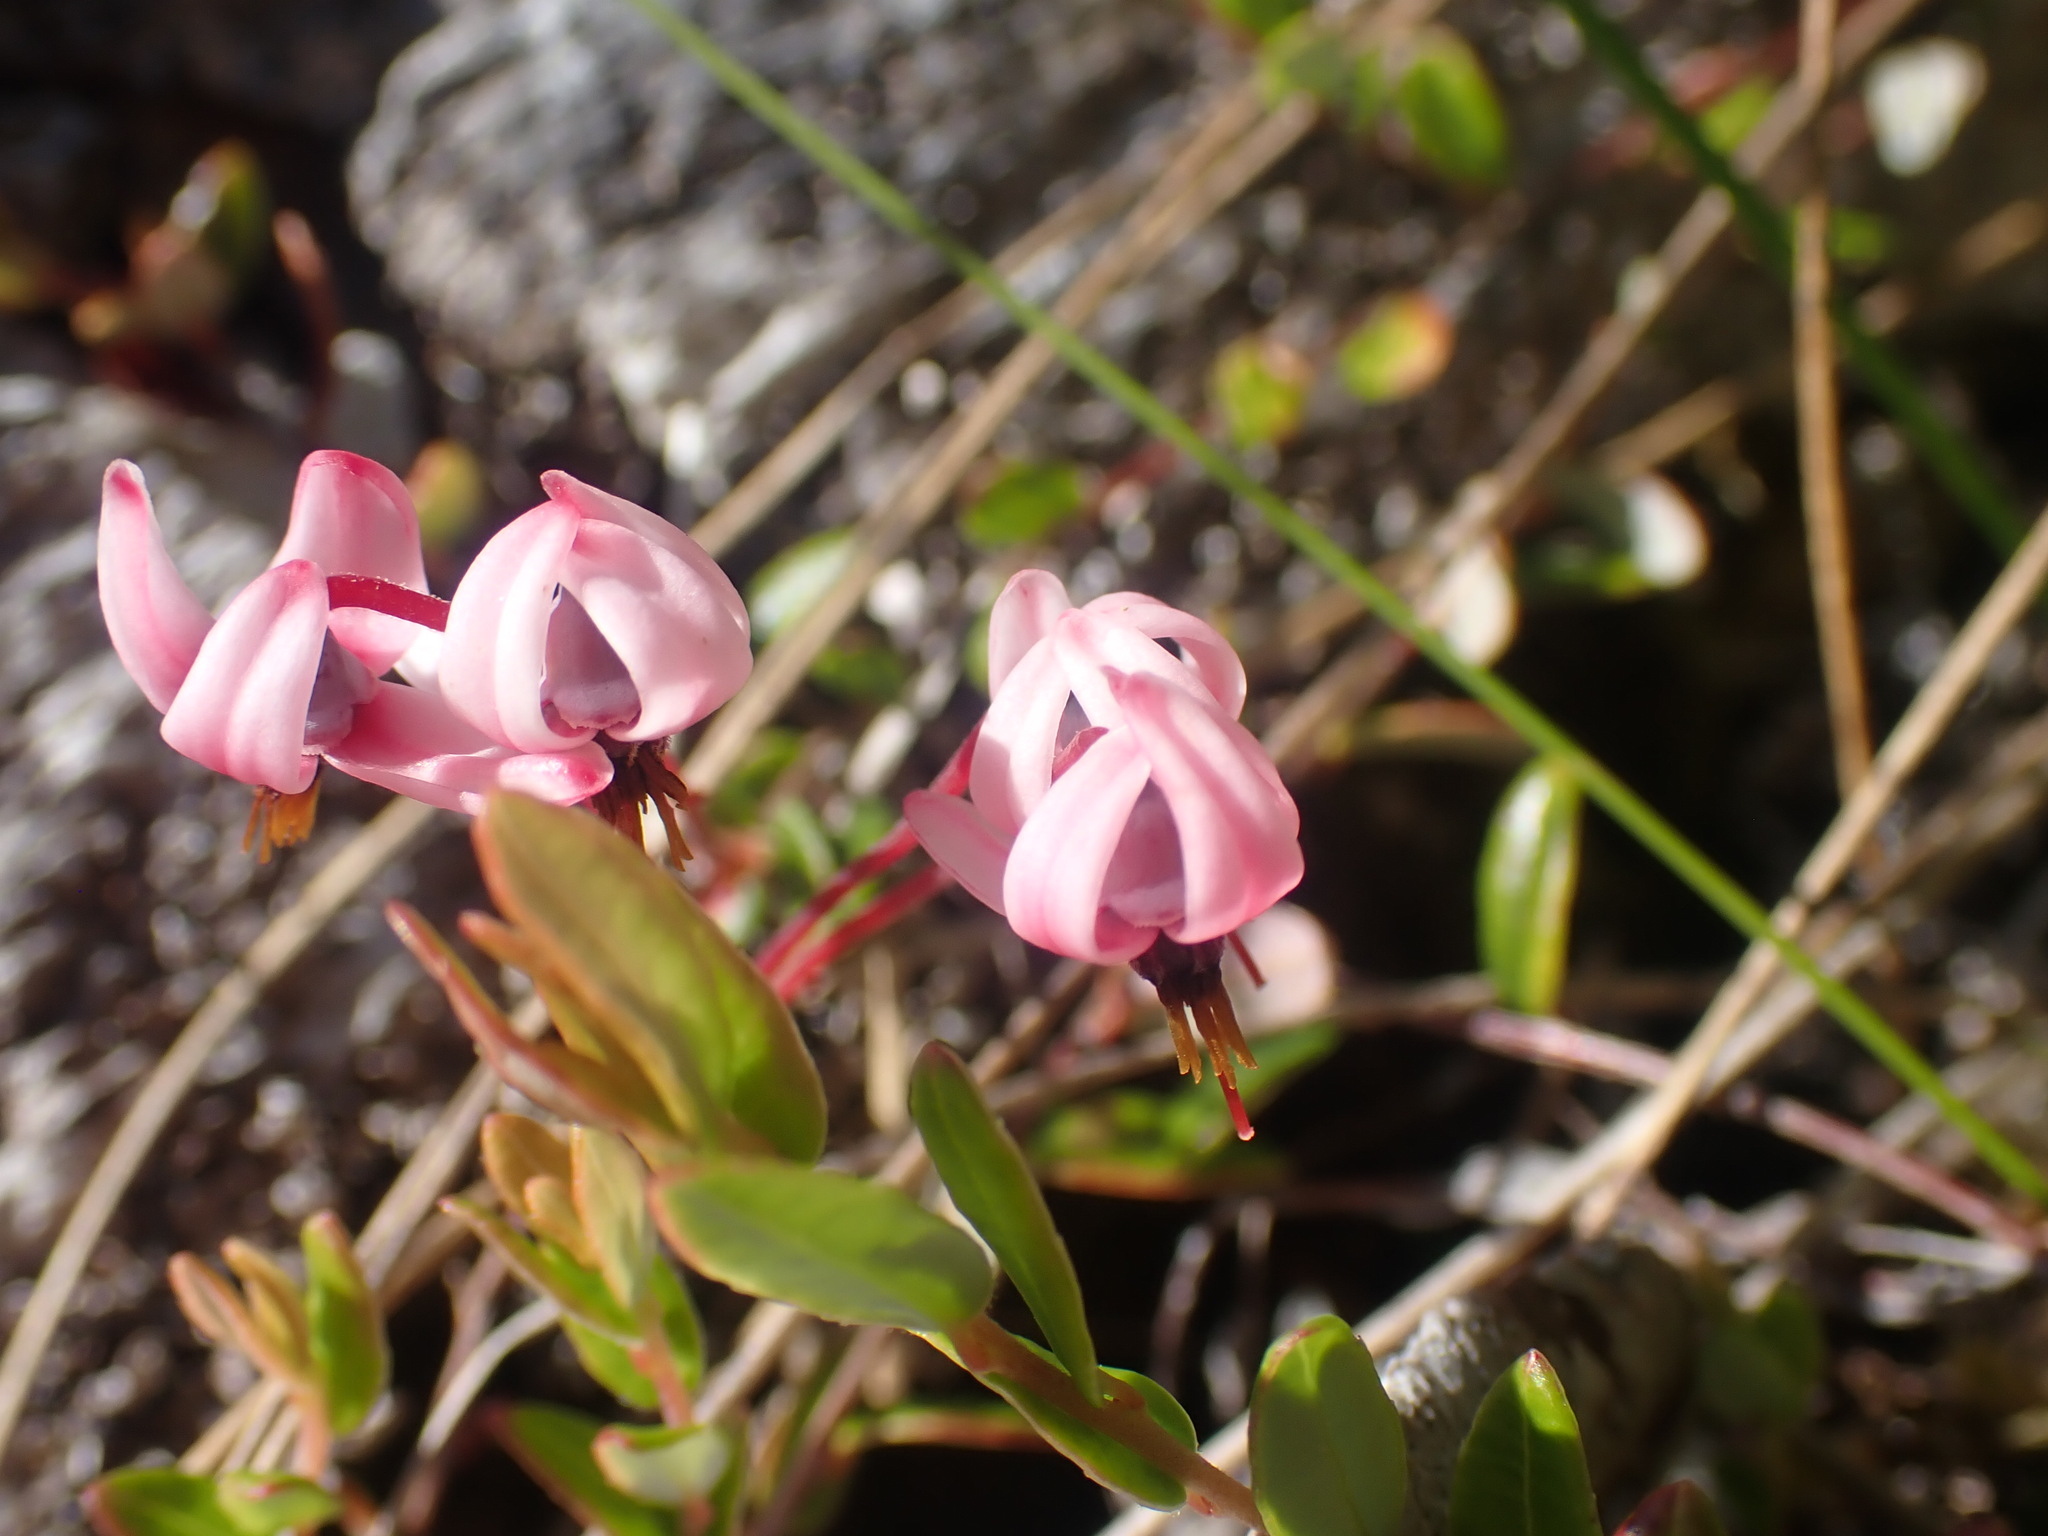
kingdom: Plantae
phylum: Tracheophyta
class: Magnoliopsida
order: Ericales
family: Ericaceae
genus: Vaccinium
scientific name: Vaccinium oxycoccos
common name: Cranberry
